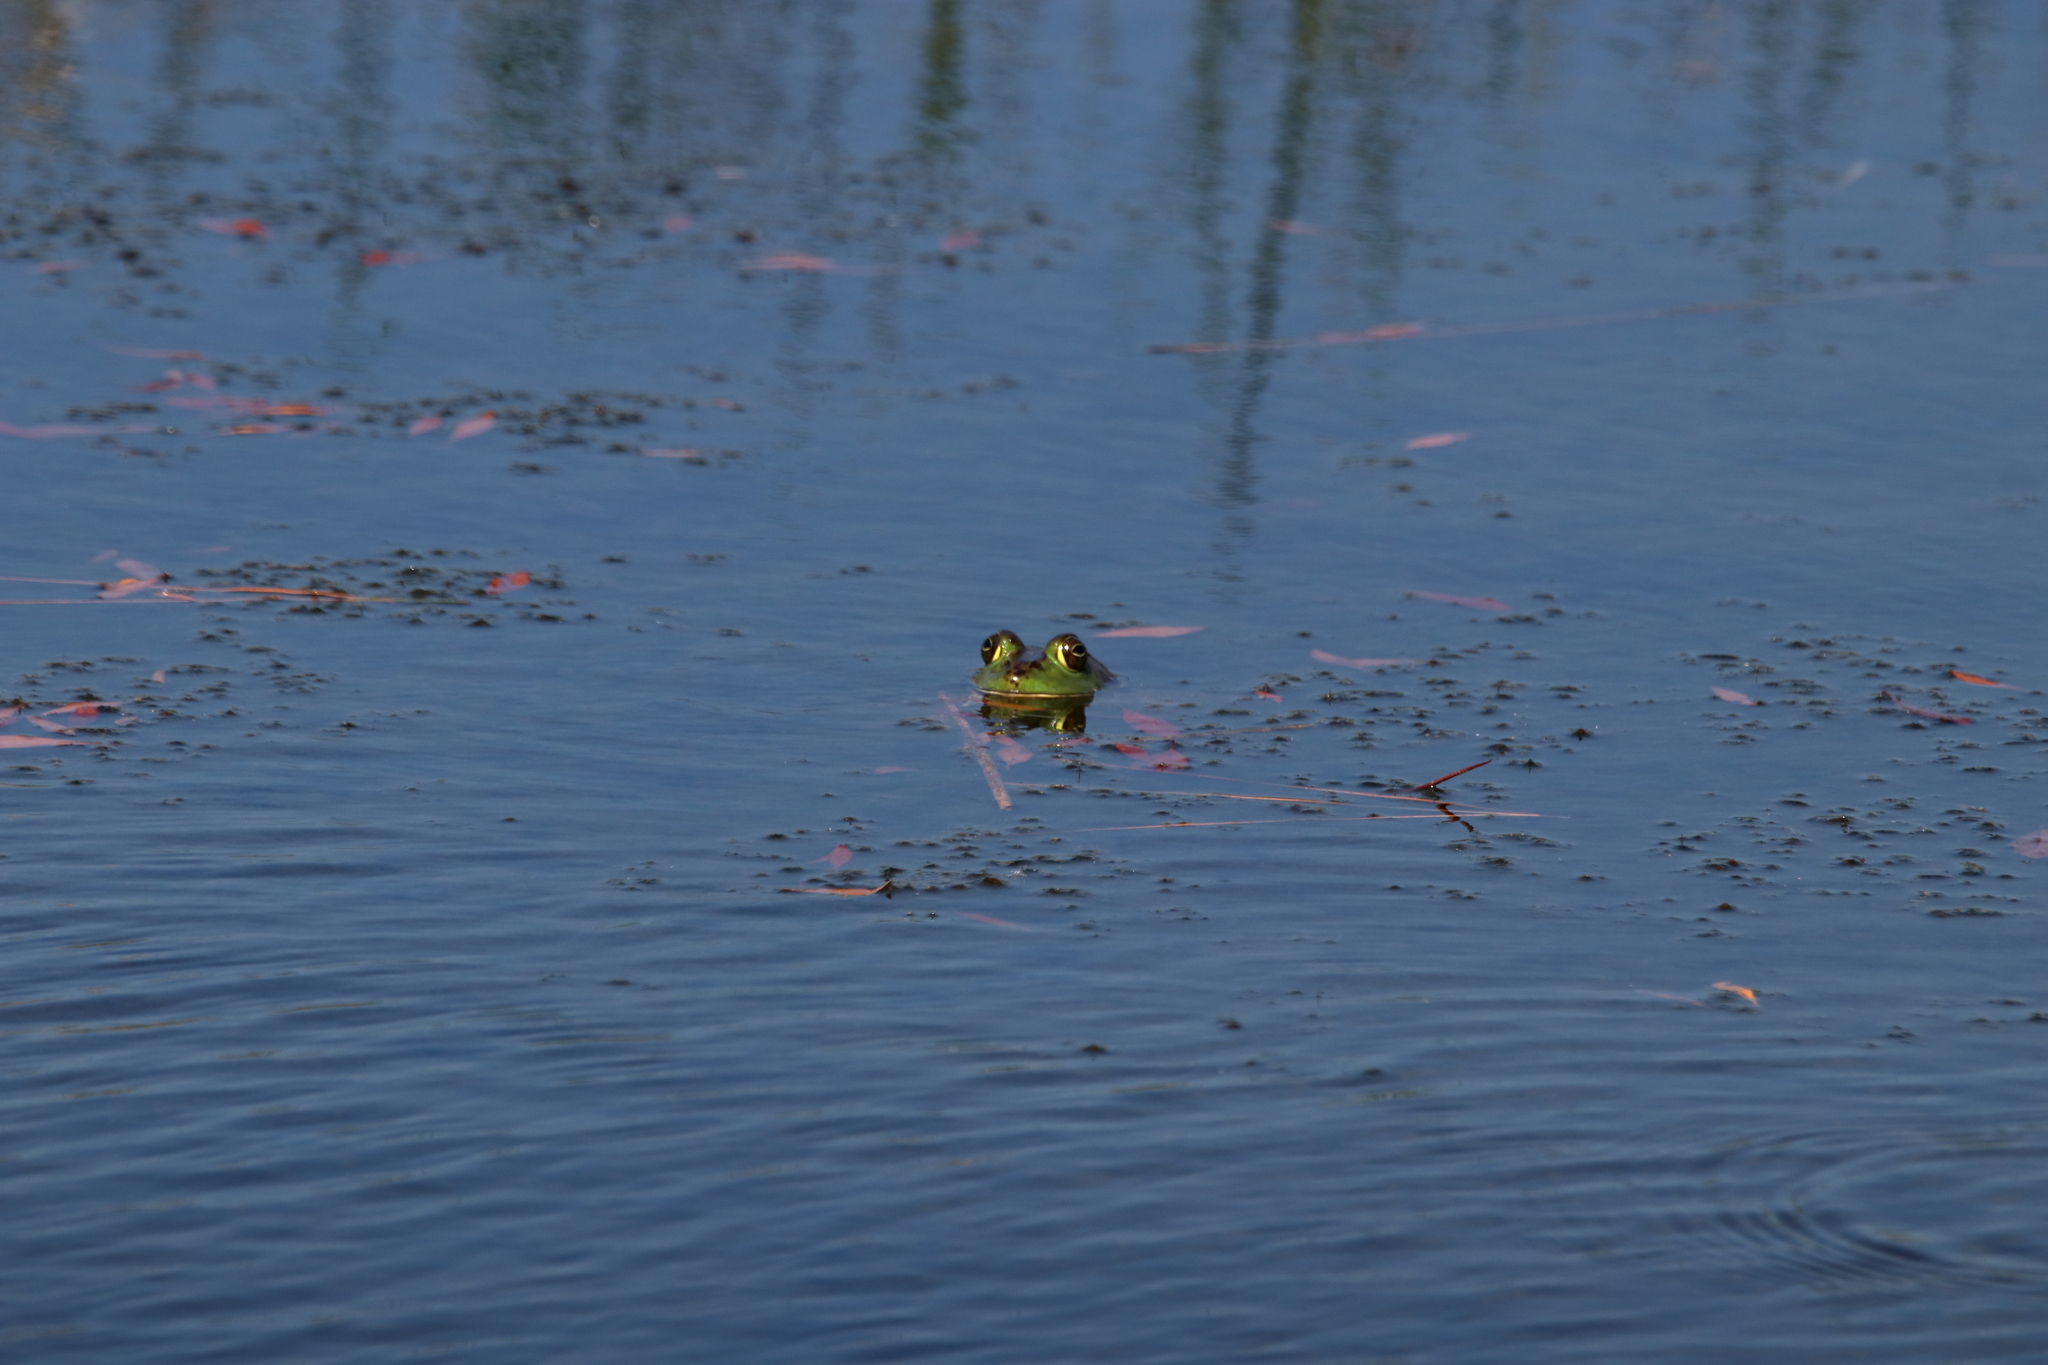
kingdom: Animalia
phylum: Chordata
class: Amphibia
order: Anura
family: Ranidae
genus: Lithobates
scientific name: Lithobates catesbeianus
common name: American bullfrog
